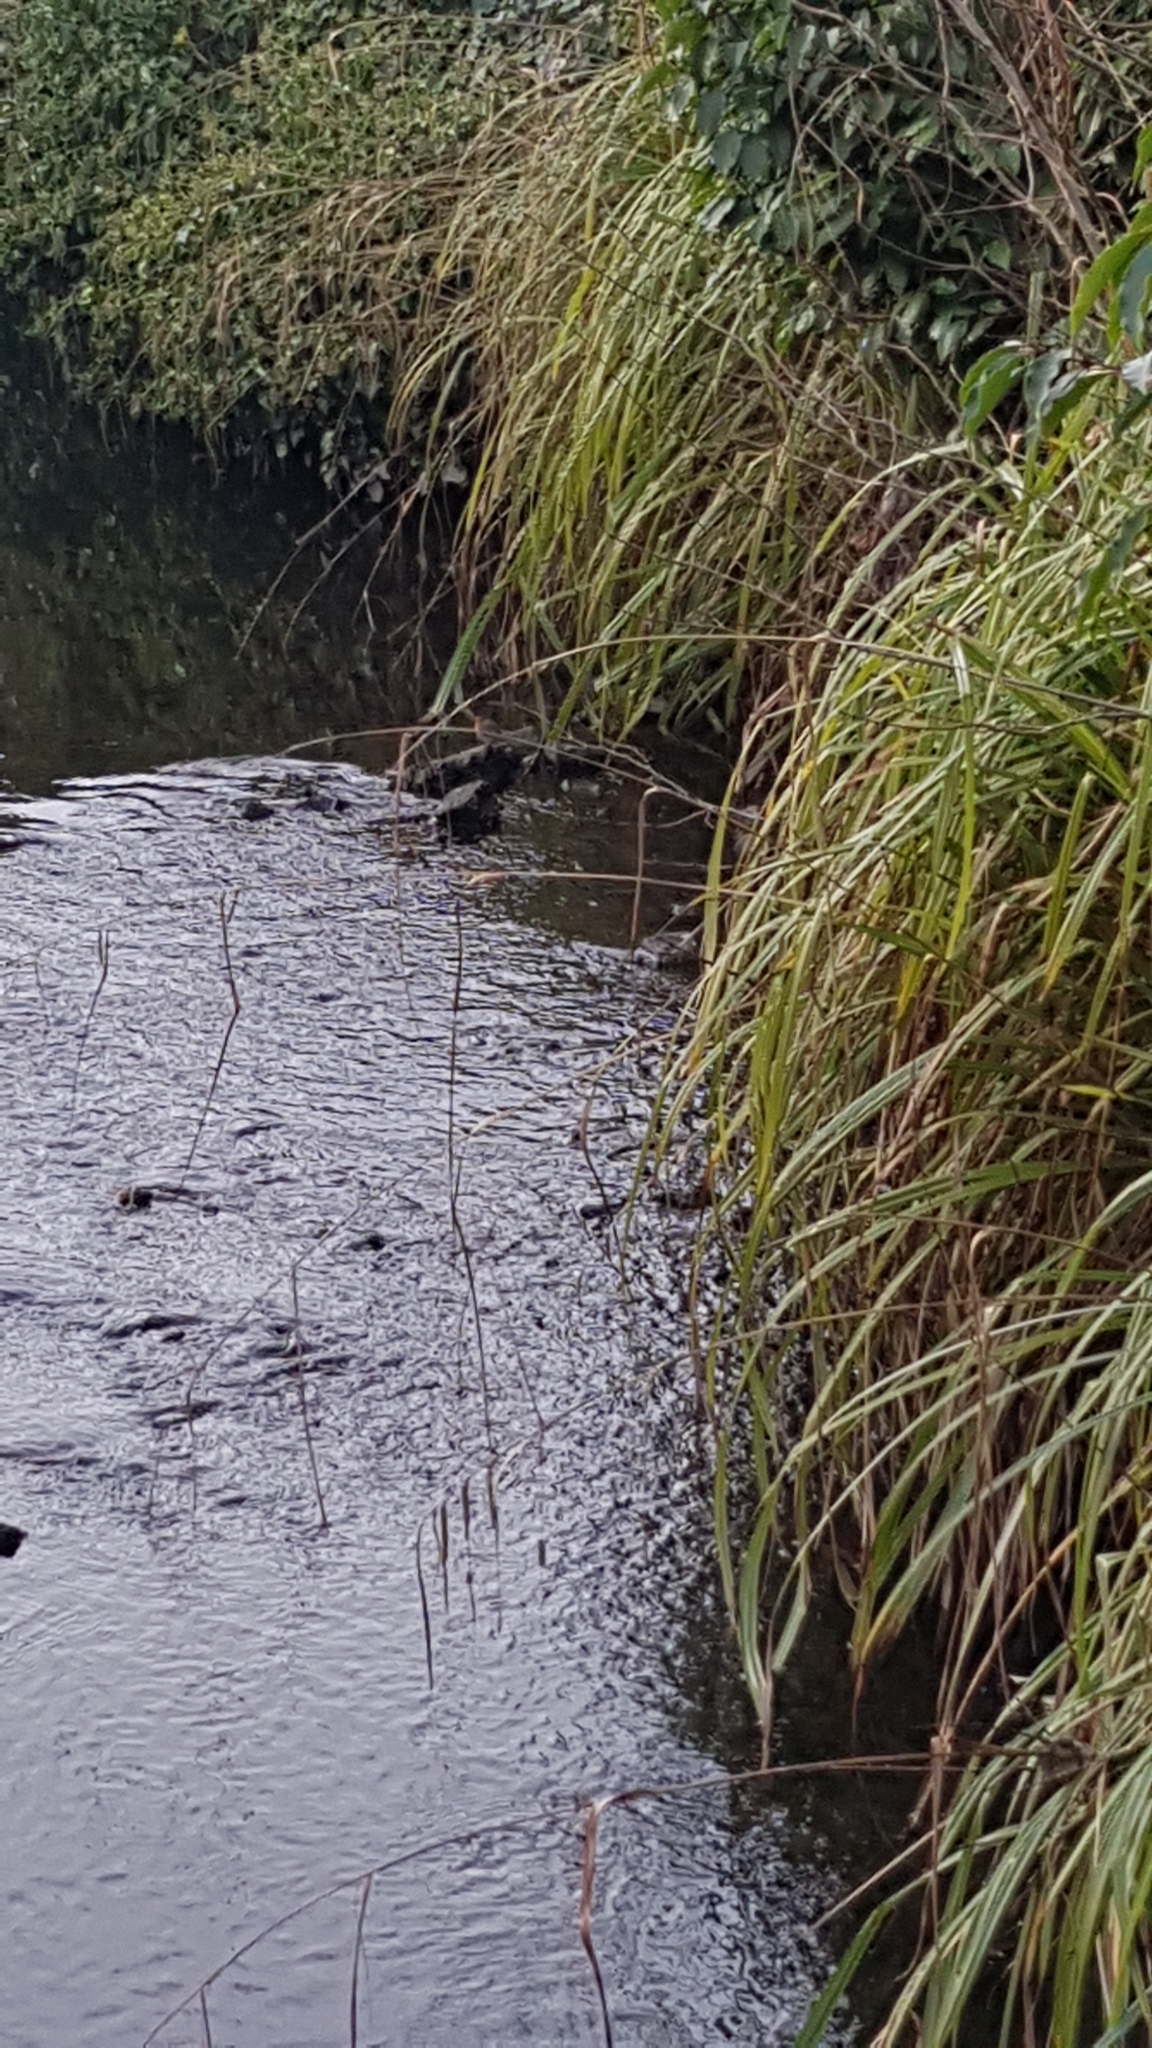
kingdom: Animalia
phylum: Chordata
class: Aves
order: Passeriformes
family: Muscicapidae
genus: Erithacus
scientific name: Erithacus rubecula
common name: European robin
